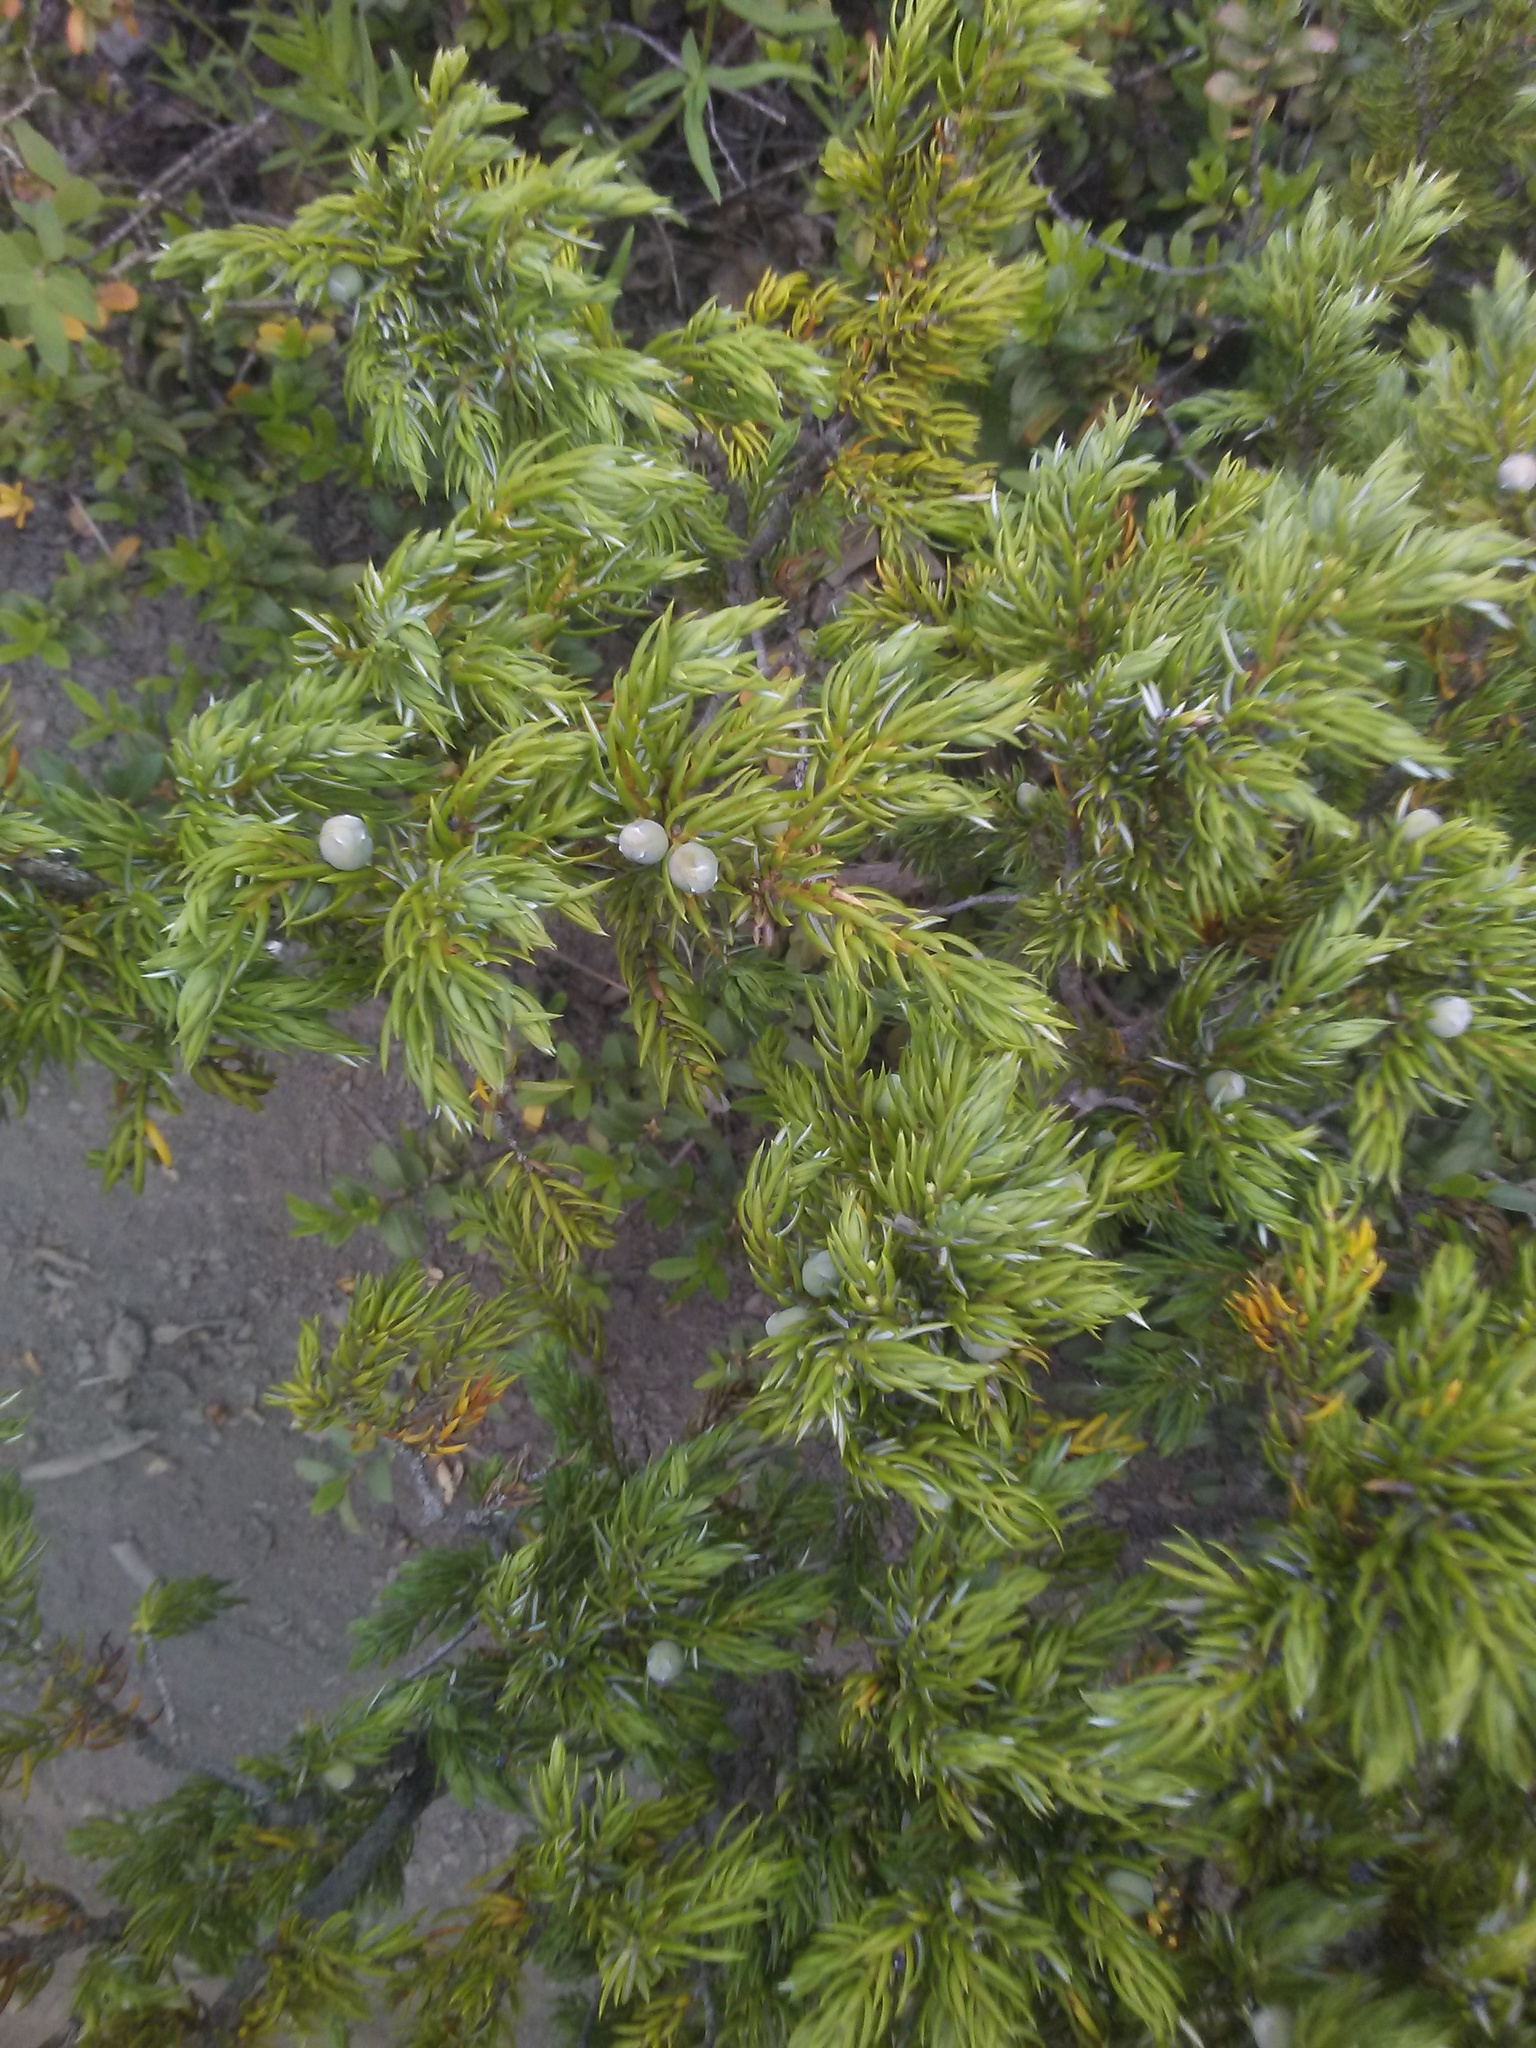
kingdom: Plantae
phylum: Tracheophyta
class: Pinopsida
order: Pinales
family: Cupressaceae
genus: Juniperus
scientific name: Juniperus communis
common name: Common juniper
